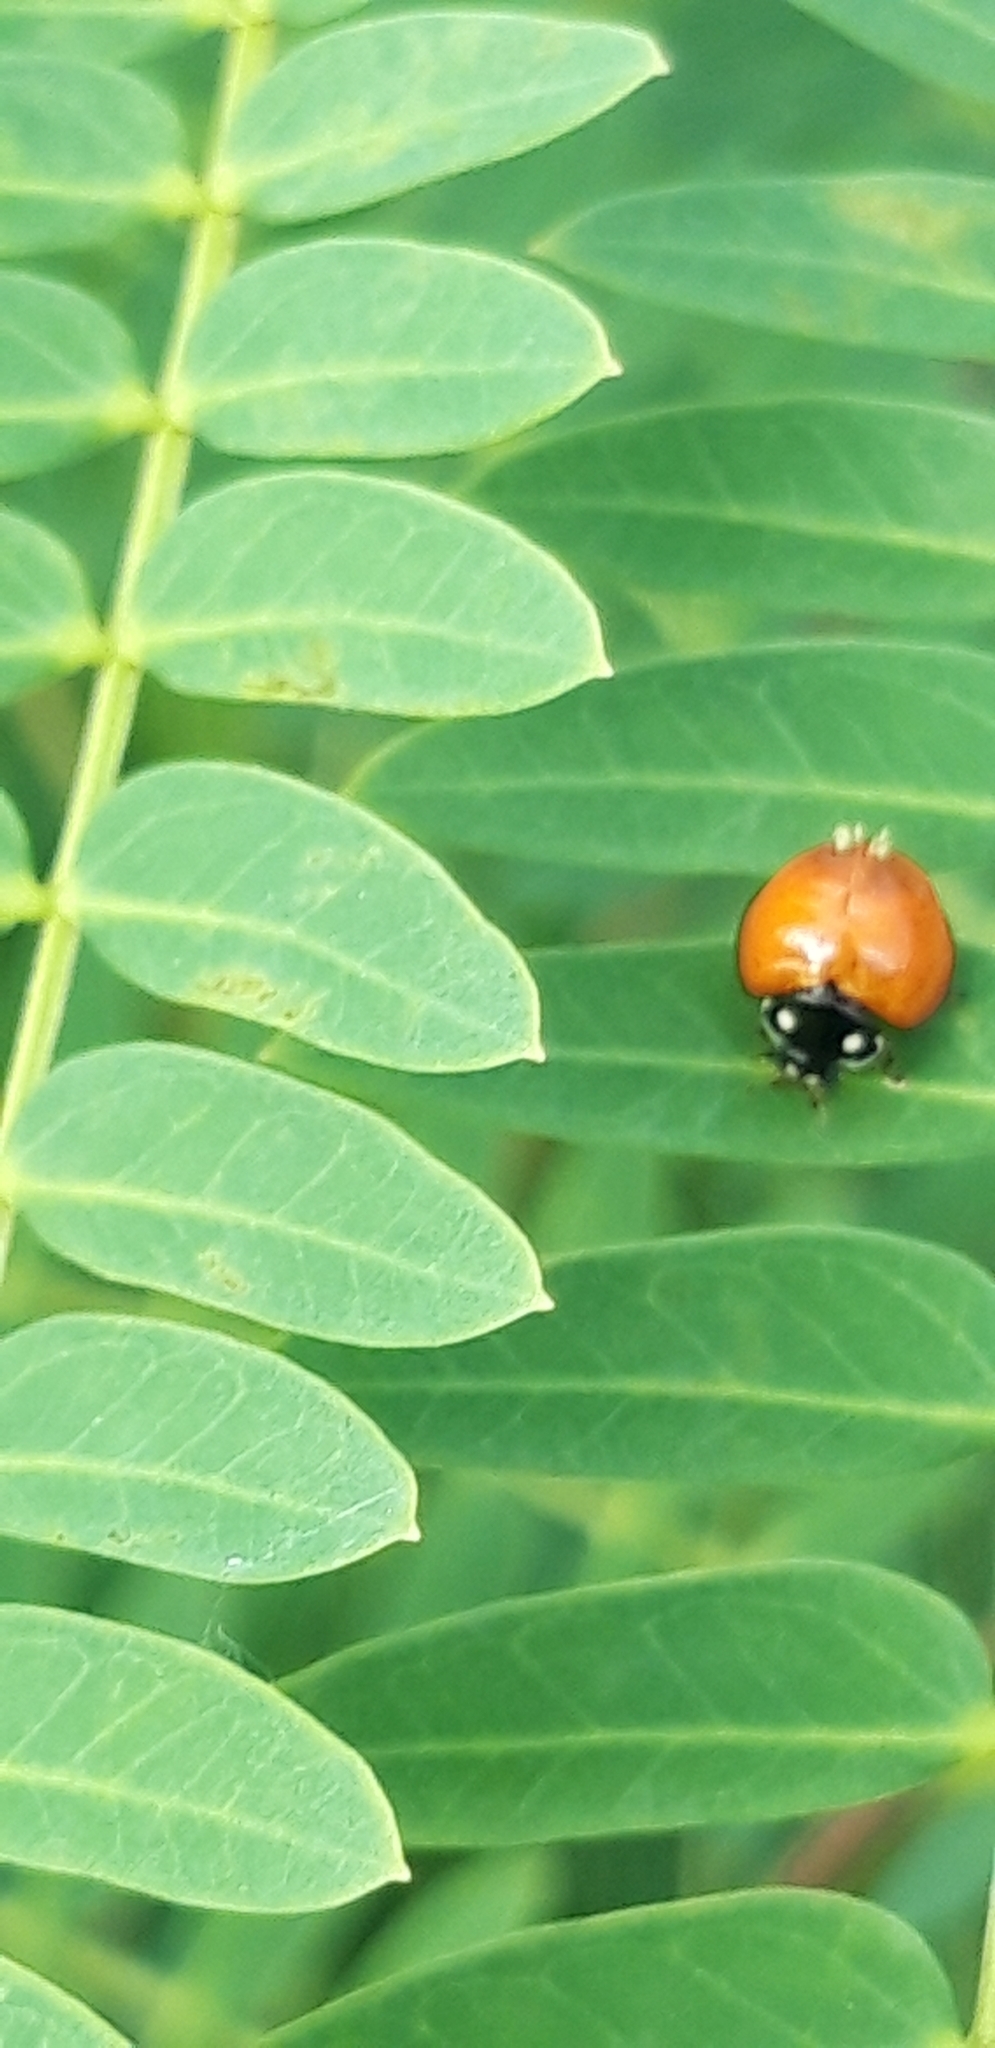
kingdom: Animalia
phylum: Arthropoda
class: Insecta
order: Coleoptera
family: Coccinellidae
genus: Cycloneda
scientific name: Cycloneda sanguinea
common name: Ladybird beetle
